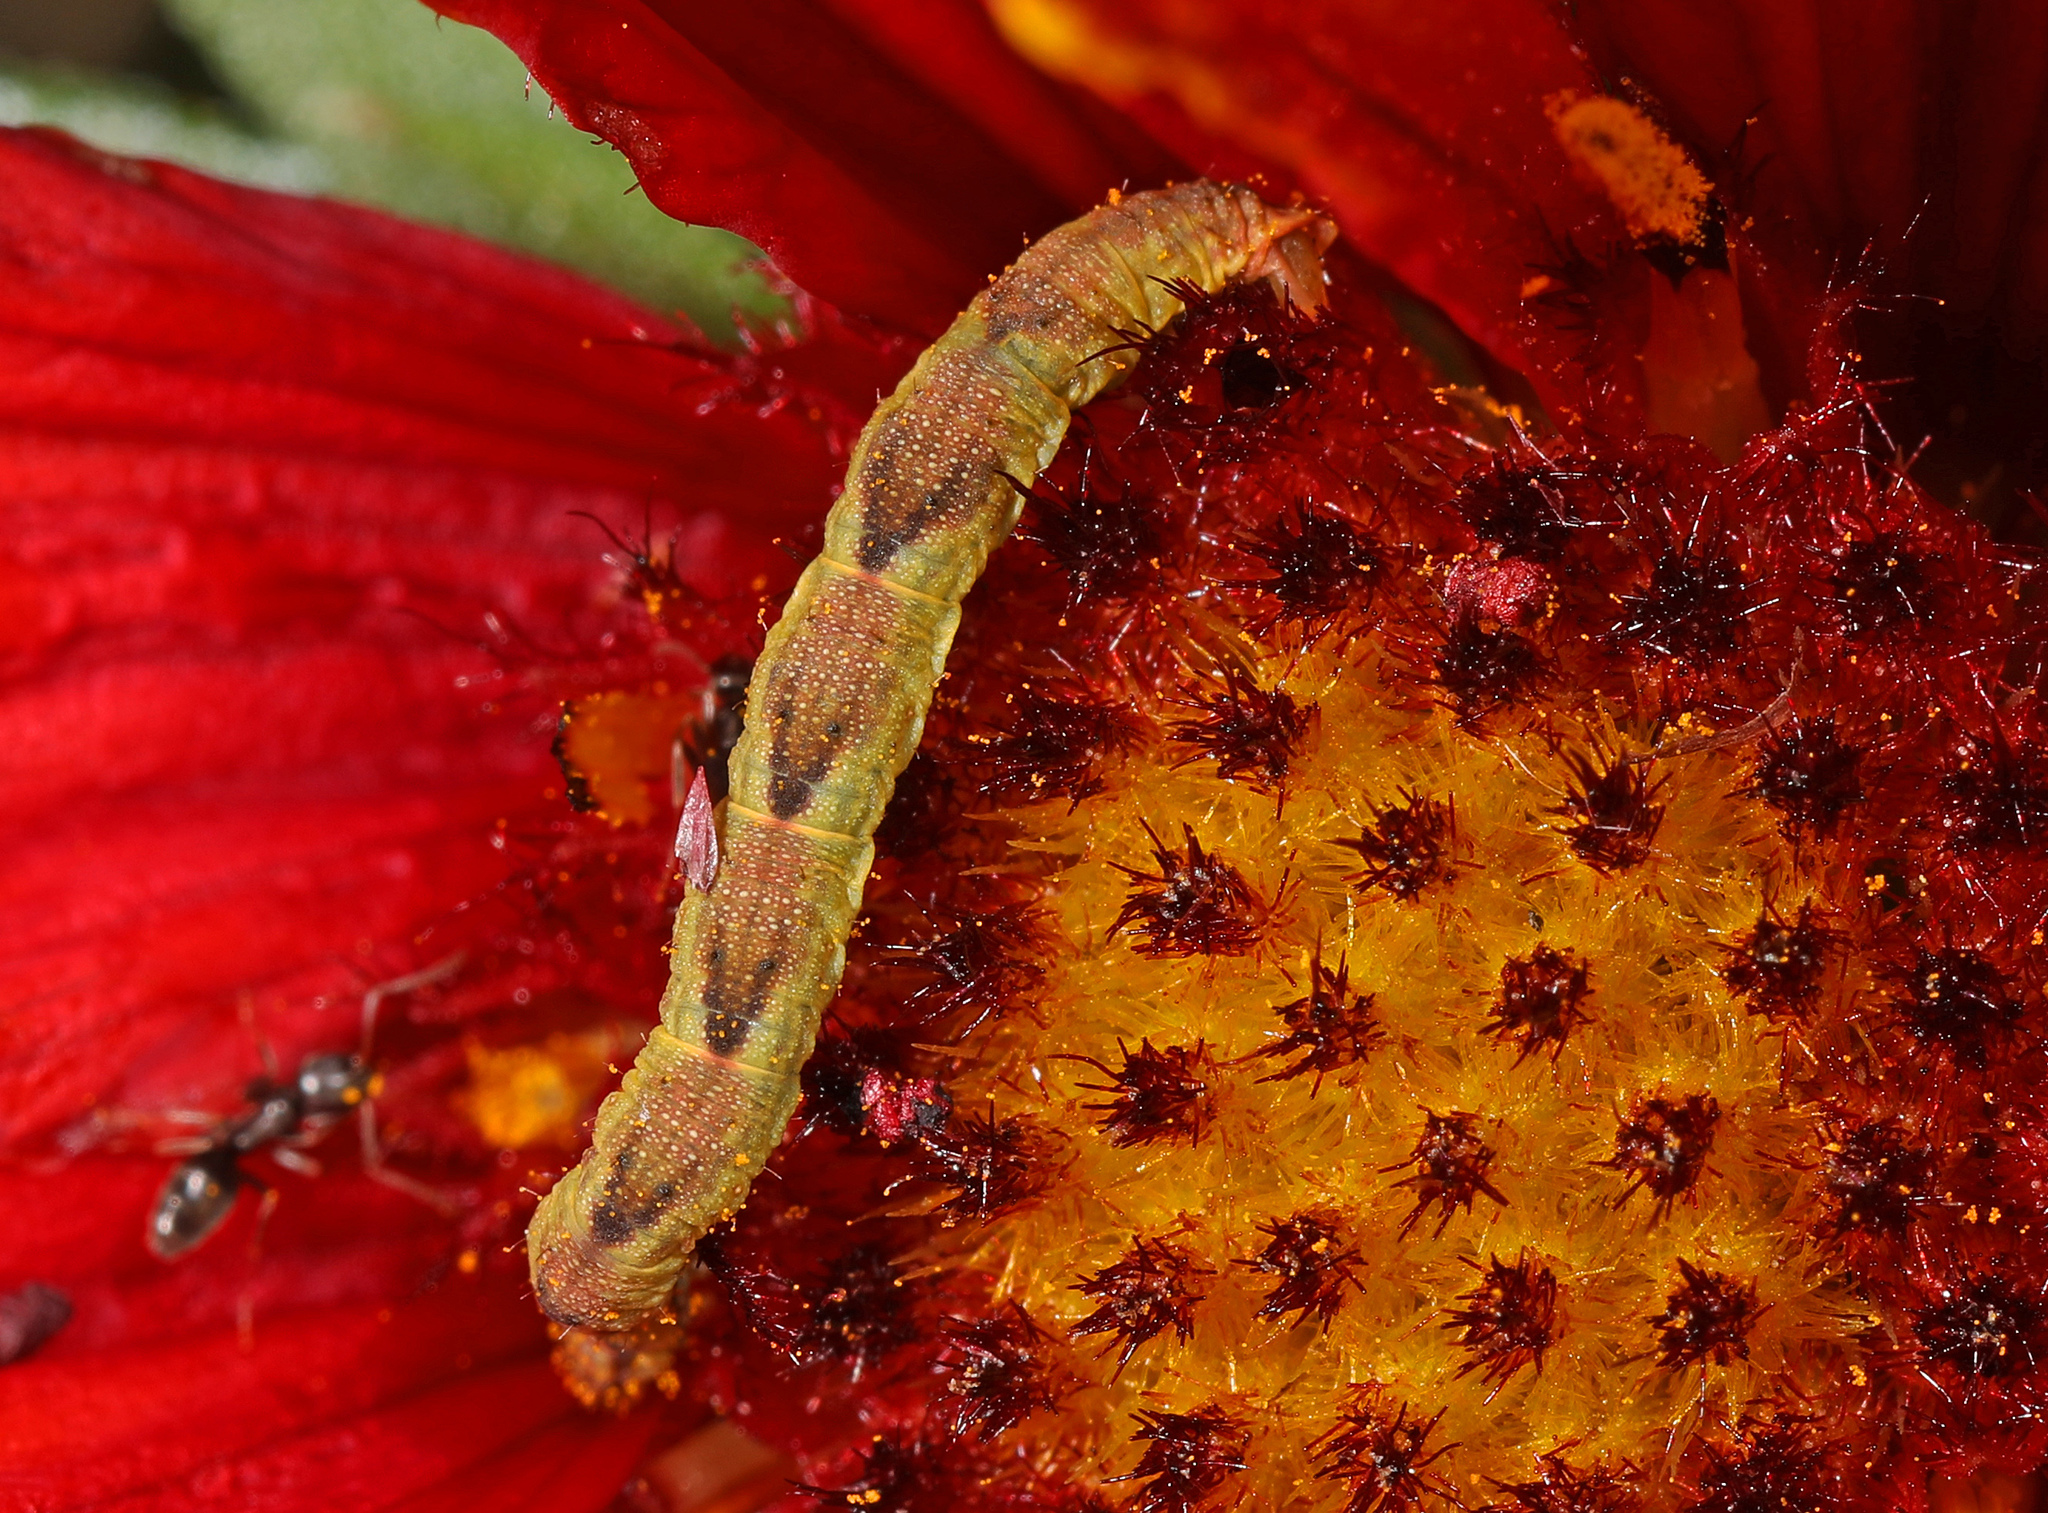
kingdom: Animalia
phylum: Arthropoda
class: Insecta
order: Lepidoptera
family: Geometridae
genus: Eupithecia
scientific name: Eupithecia miserulata
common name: Common eupithecia
